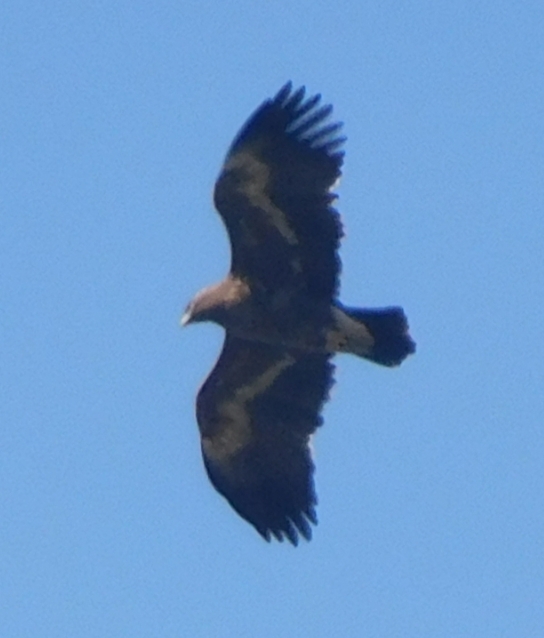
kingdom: Animalia
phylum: Chordata
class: Aves
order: Accipitriformes
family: Accipitridae
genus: Aquila
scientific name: Aquila nipalensis
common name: Steppe eagle
